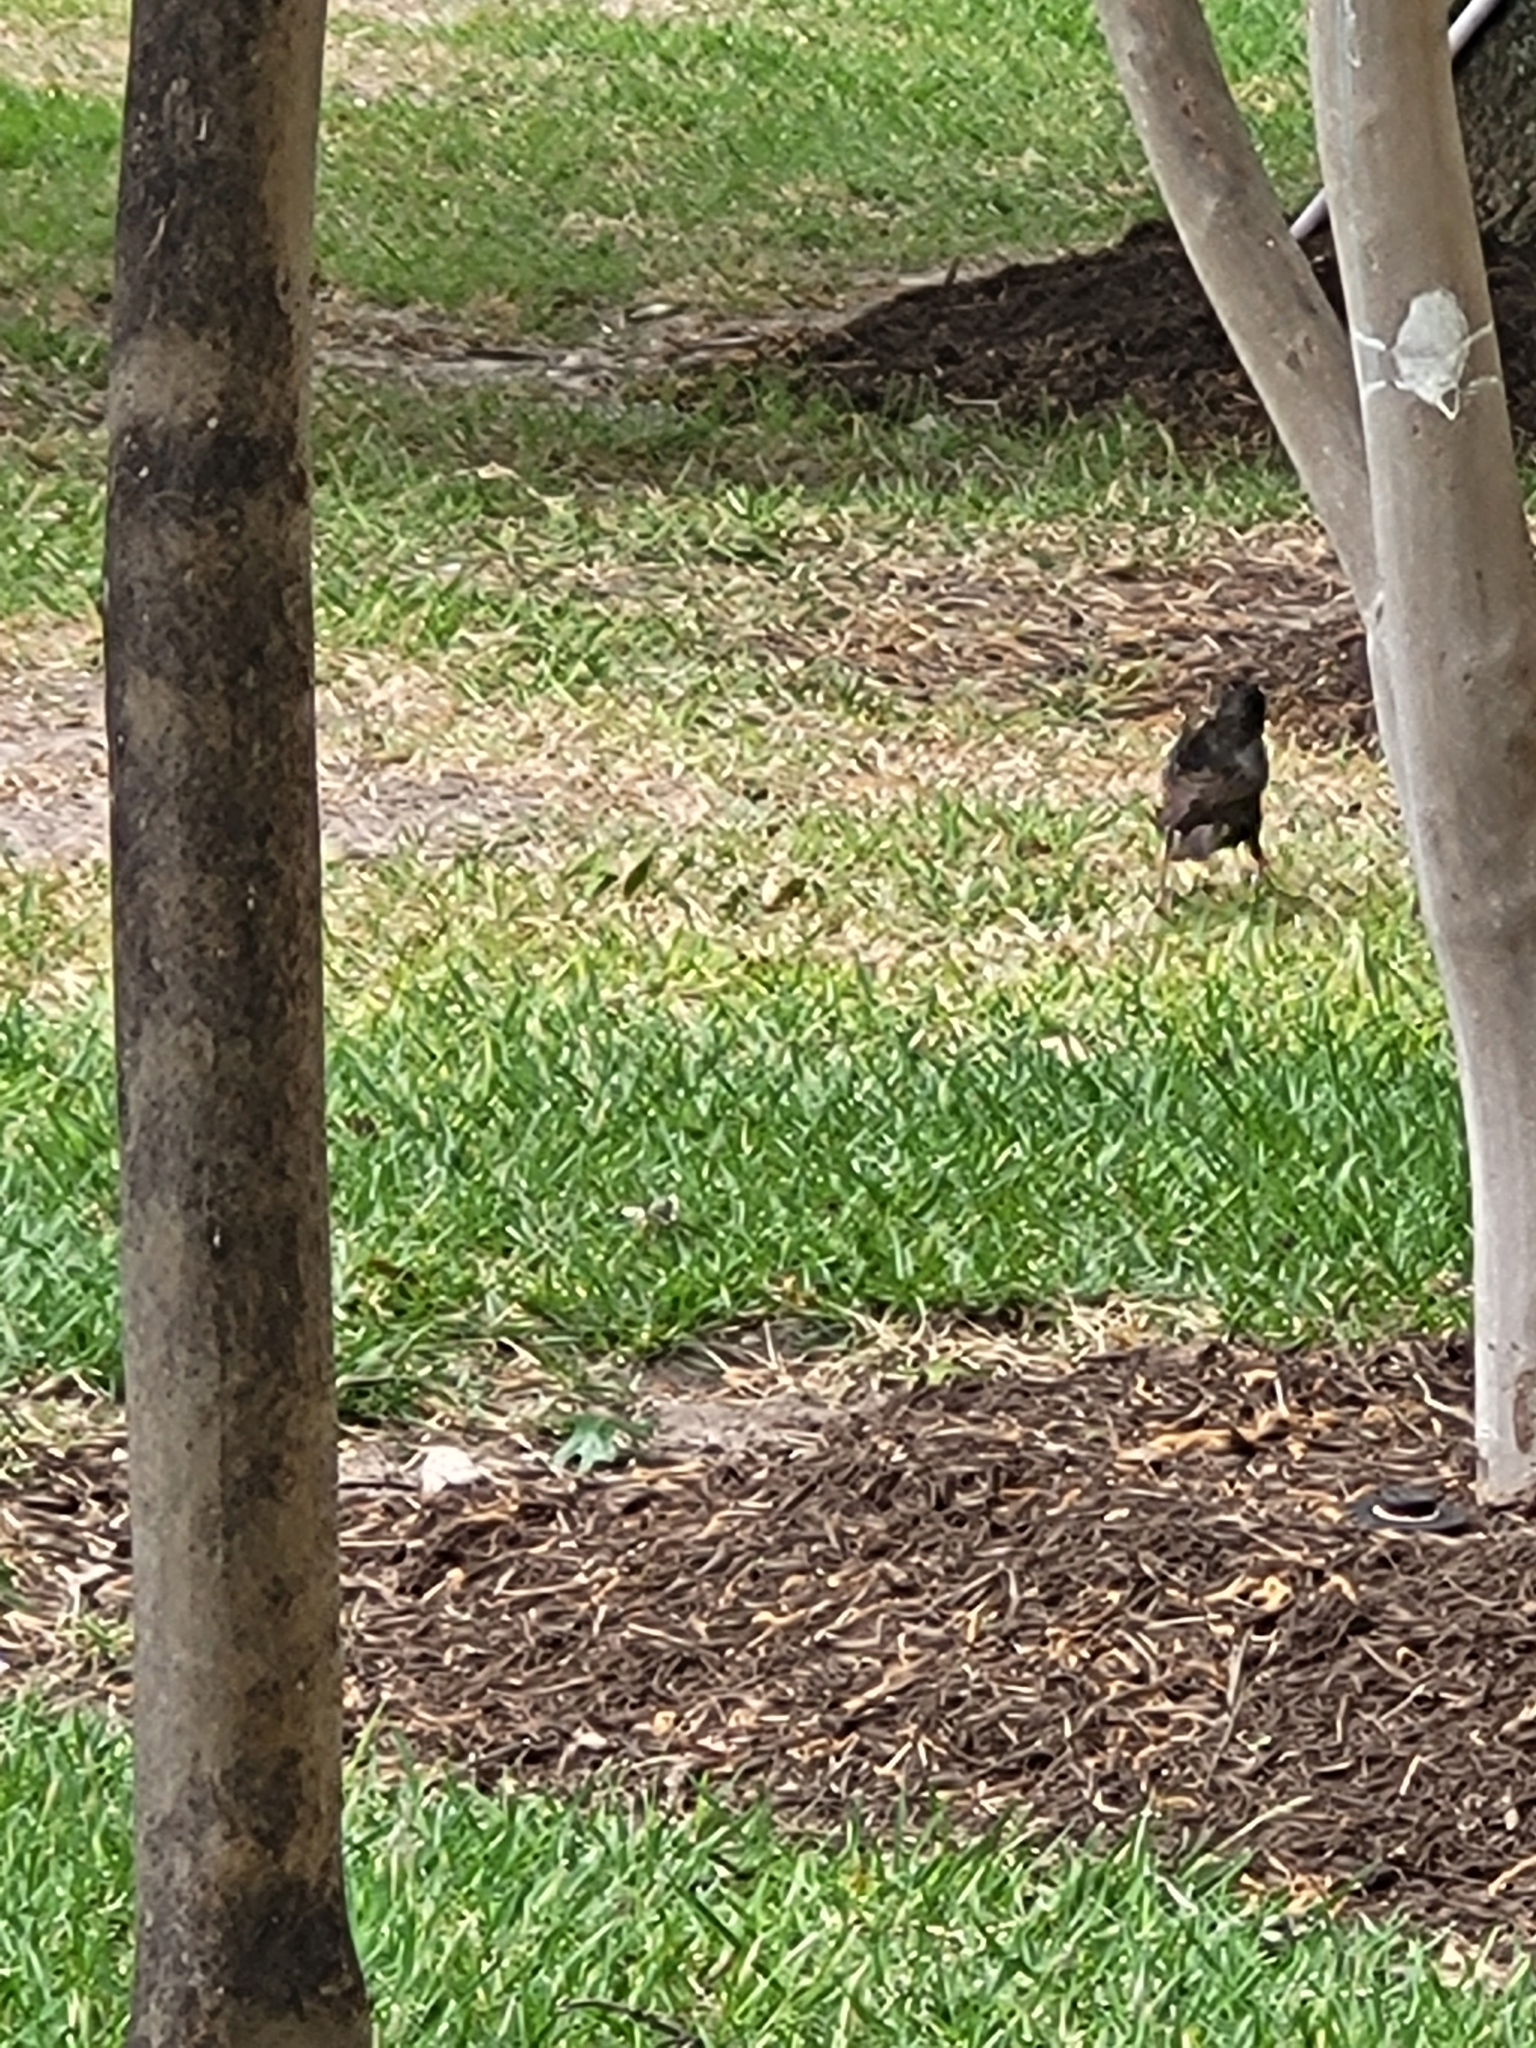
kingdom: Animalia
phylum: Chordata
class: Aves
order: Passeriformes
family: Sturnidae
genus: Sturnus
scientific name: Sturnus vulgaris
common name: Common starling
